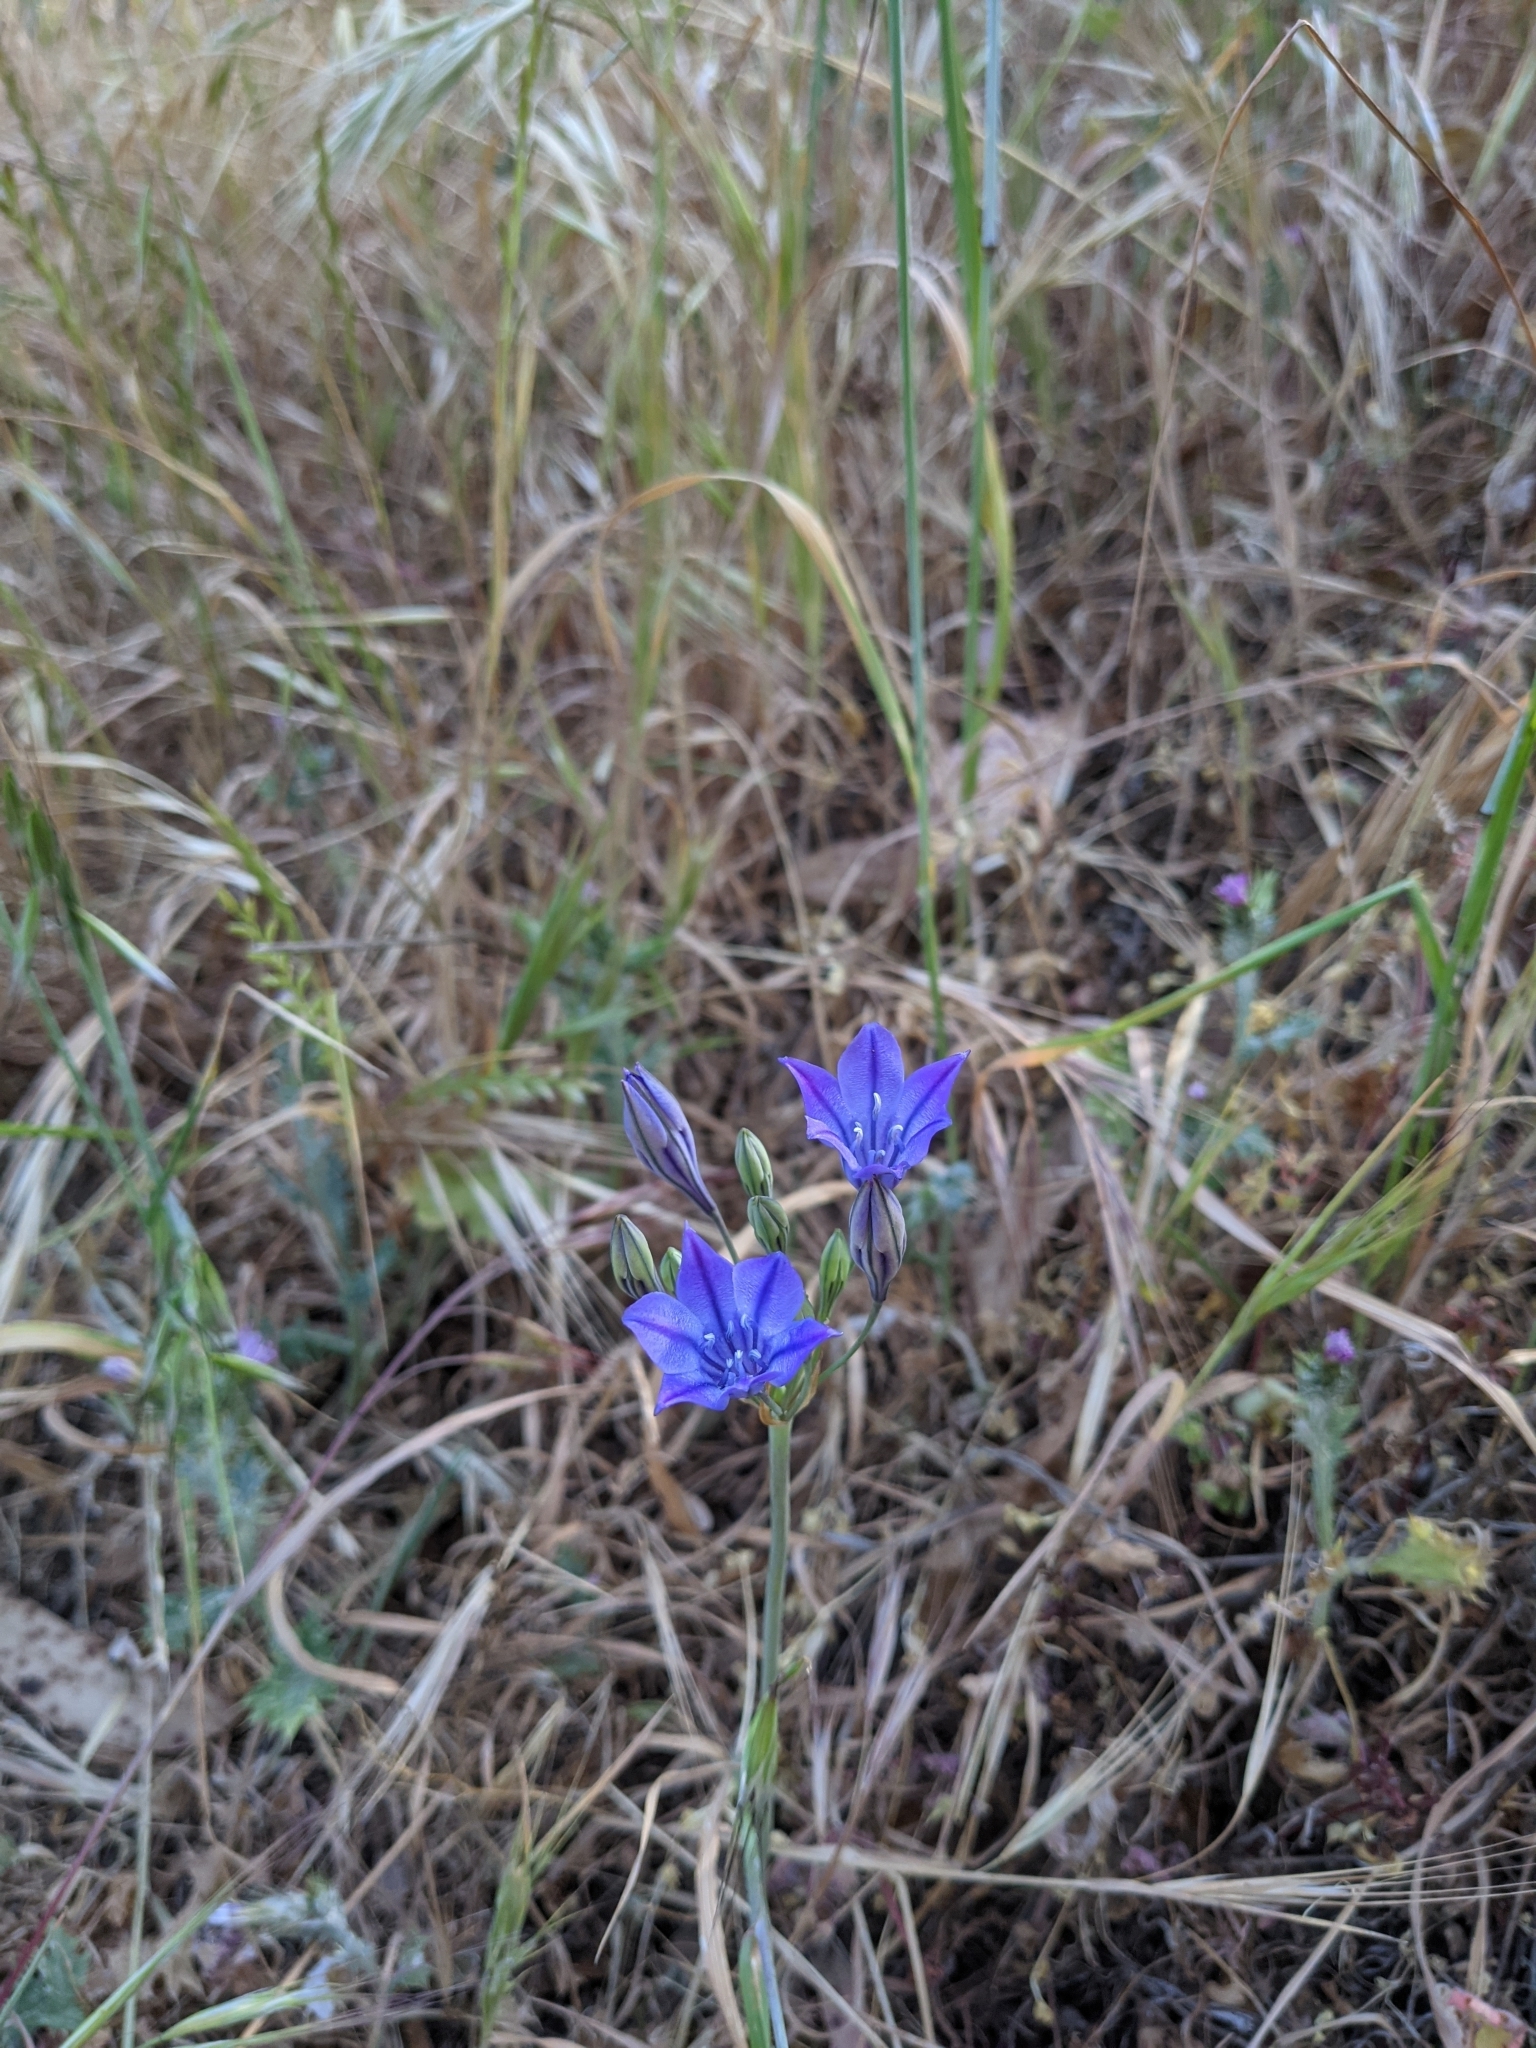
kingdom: Plantae
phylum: Tracheophyta
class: Liliopsida
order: Asparagales
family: Asparagaceae
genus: Triteleia
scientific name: Triteleia laxa
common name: Triplet-lily
